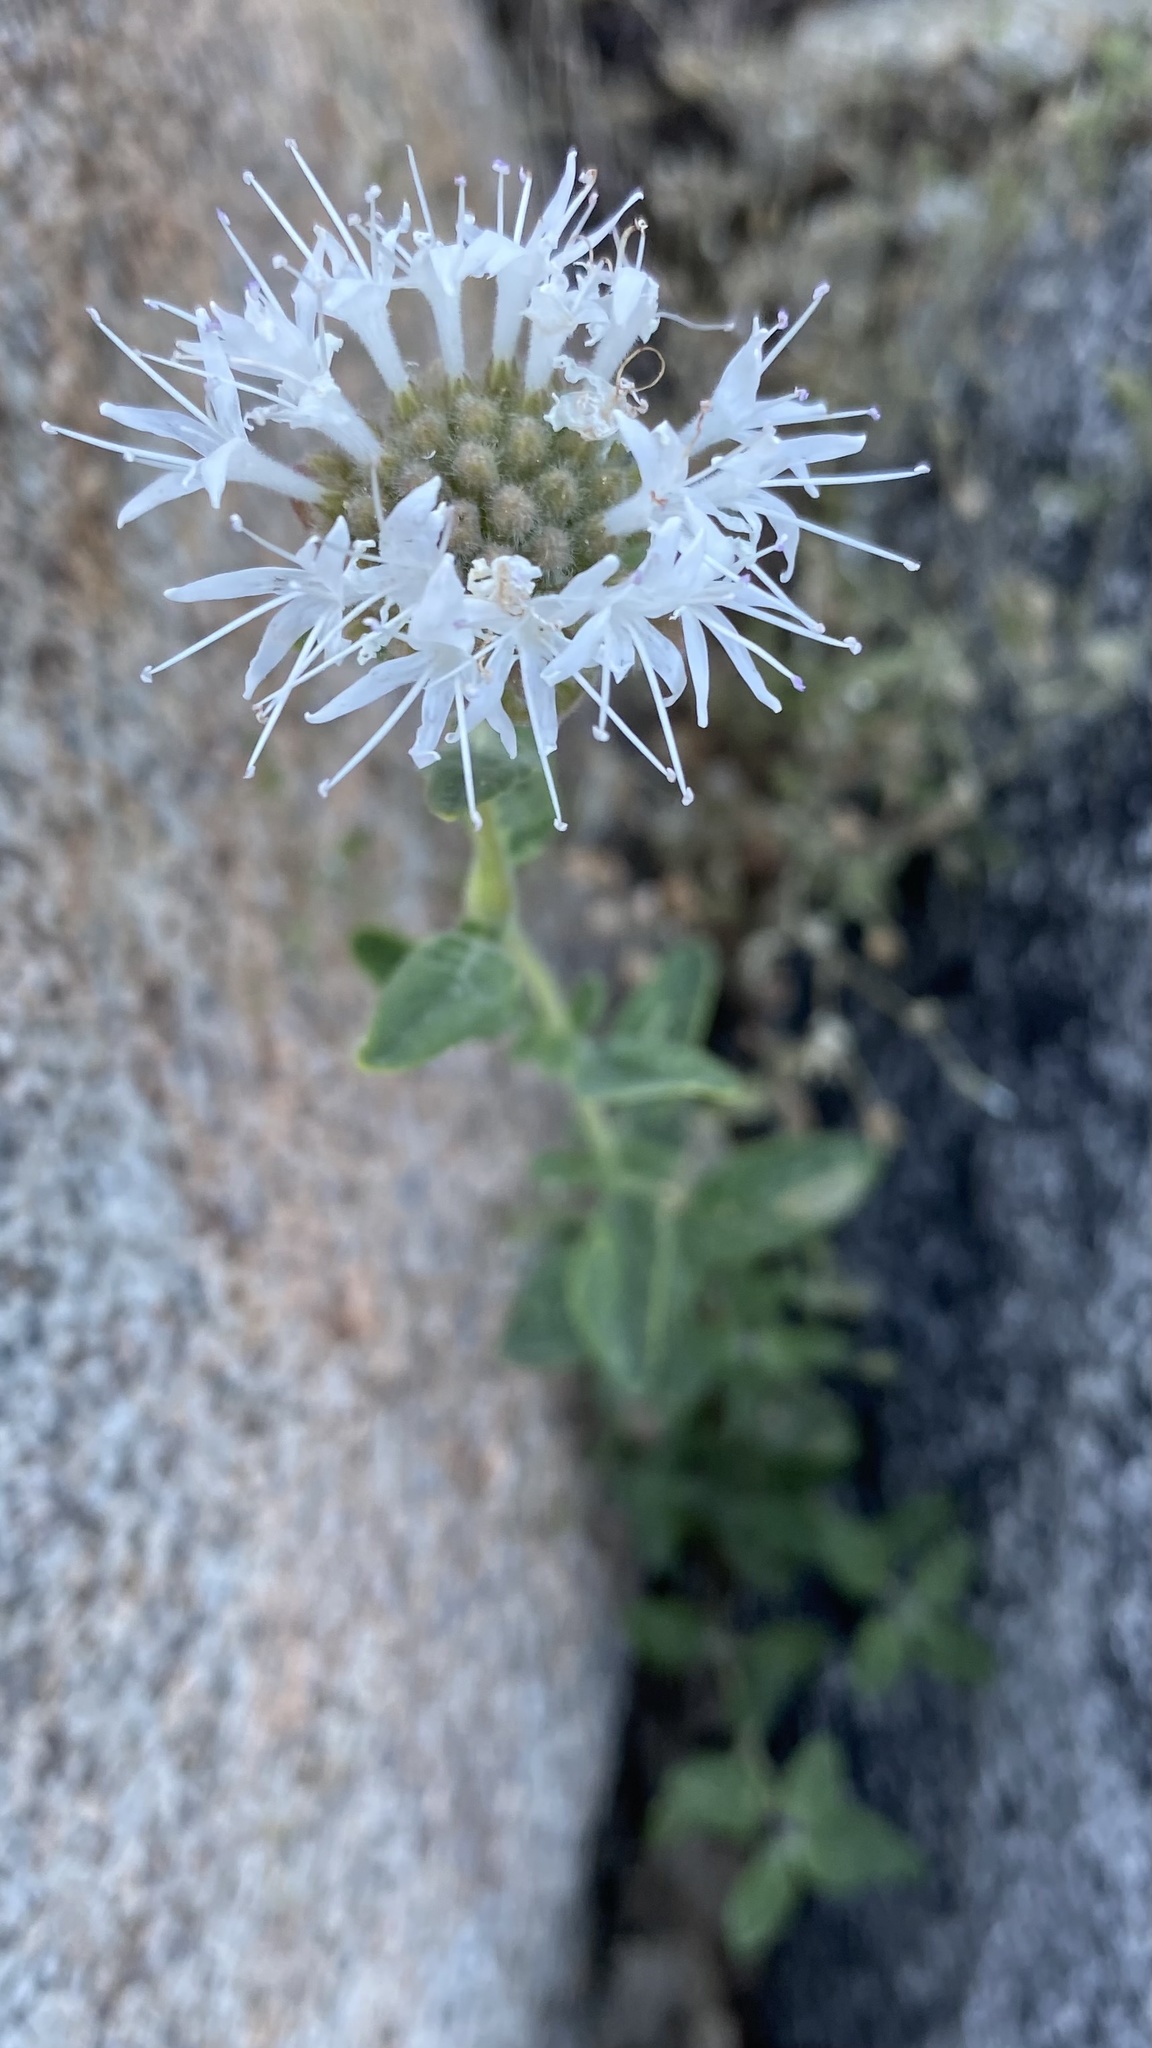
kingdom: Plantae
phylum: Tracheophyta
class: Magnoliopsida
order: Lamiales
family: Lamiaceae
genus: Monardella
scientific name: Monardella odoratissima
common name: Pacific monardella
